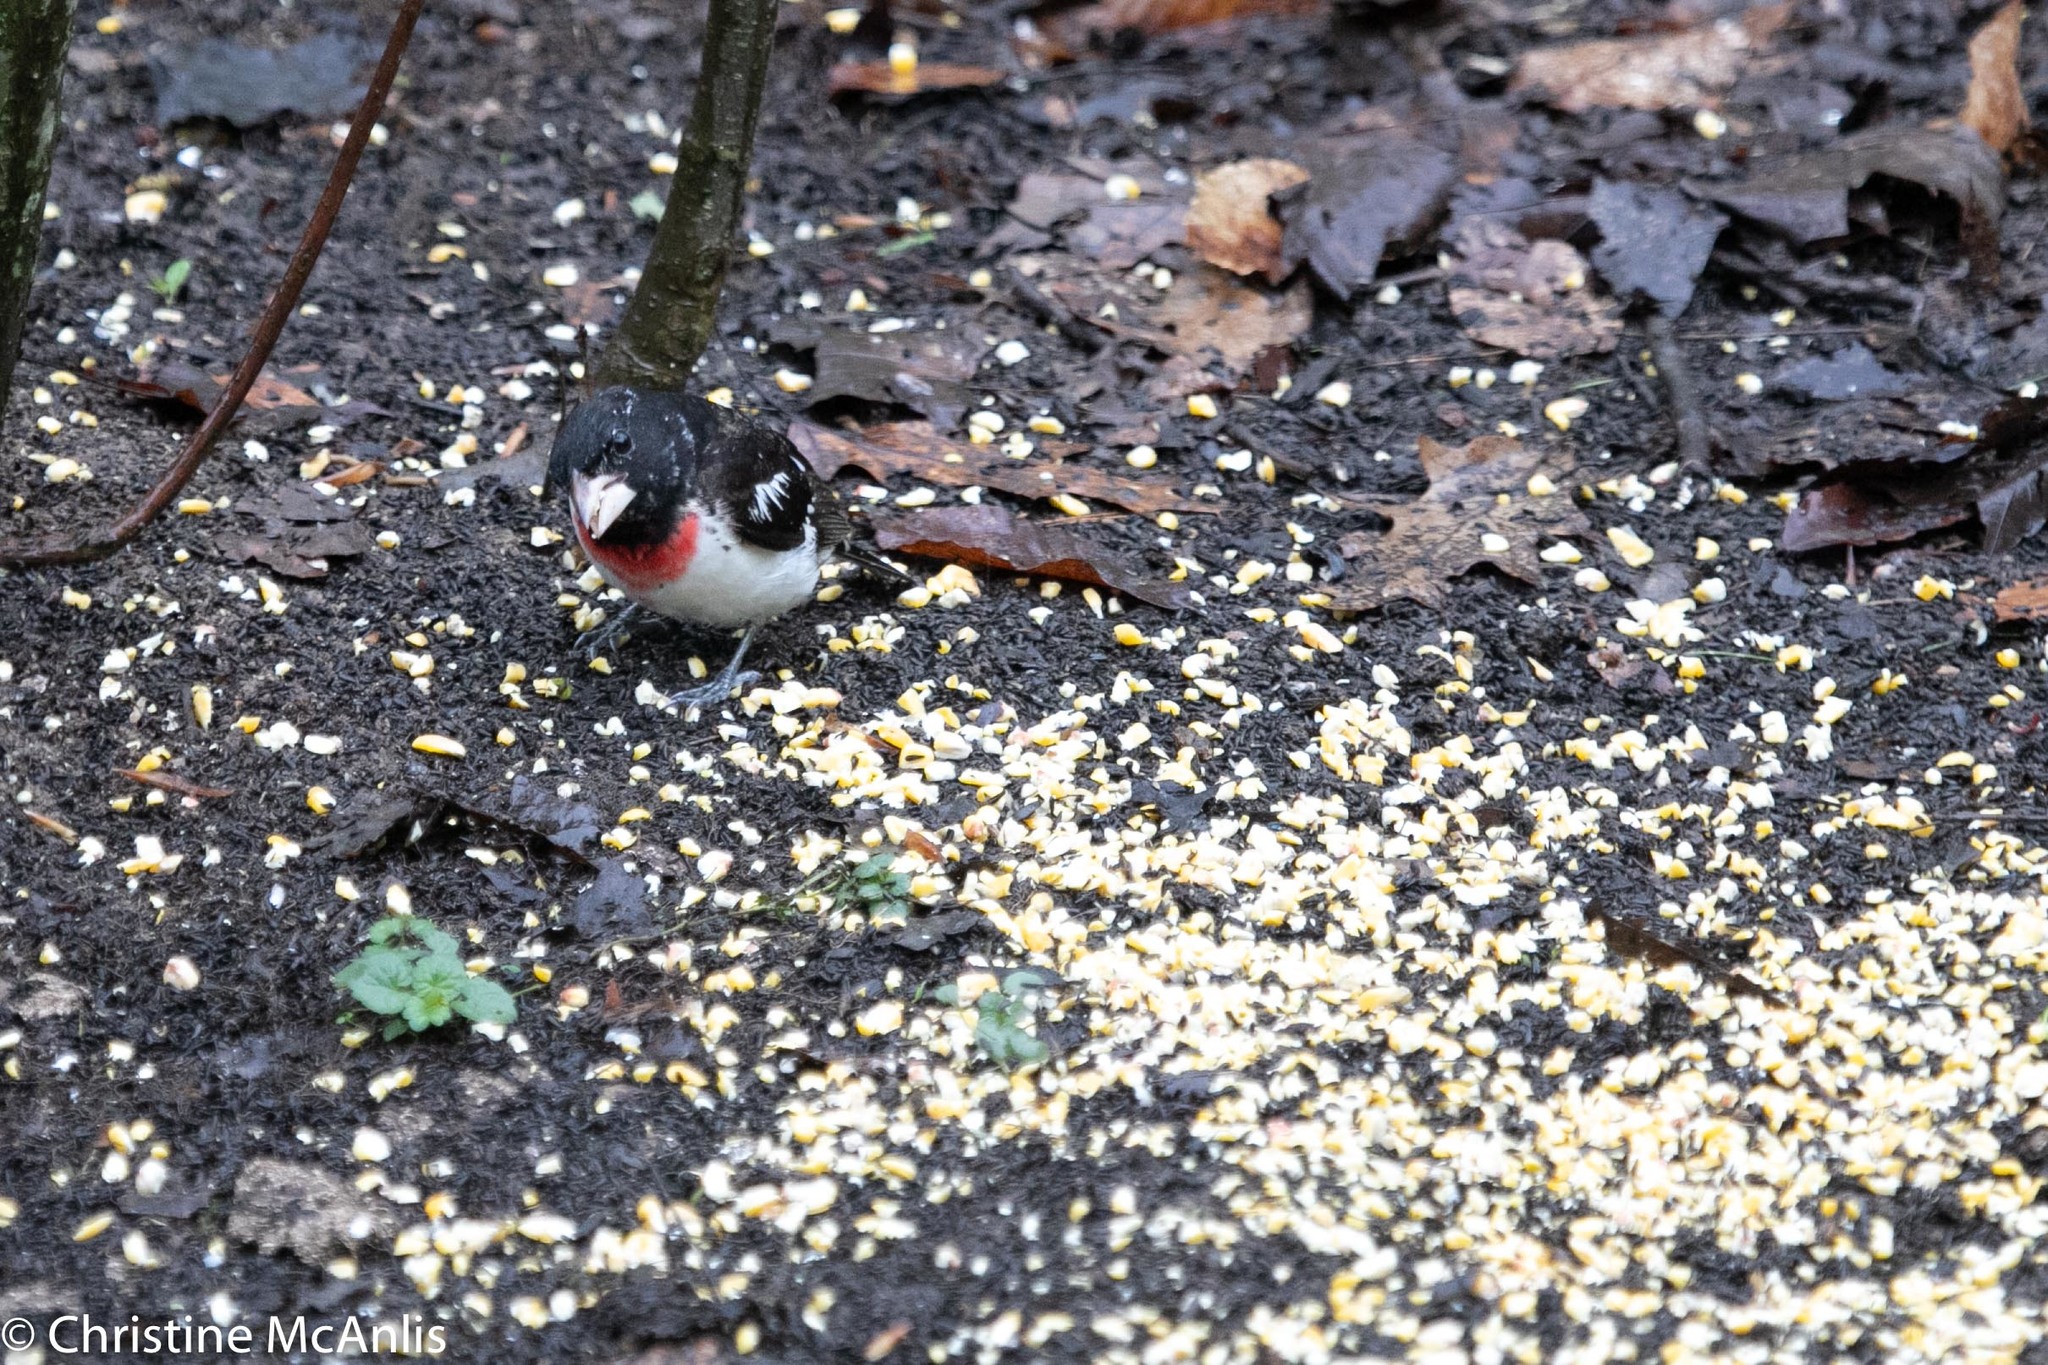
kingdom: Animalia
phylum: Chordata
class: Aves
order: Passeriformes
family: Cardinalidae
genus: Pheucticus
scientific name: Pheucticus ludovicianus
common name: Rose-breasted grosbeak
